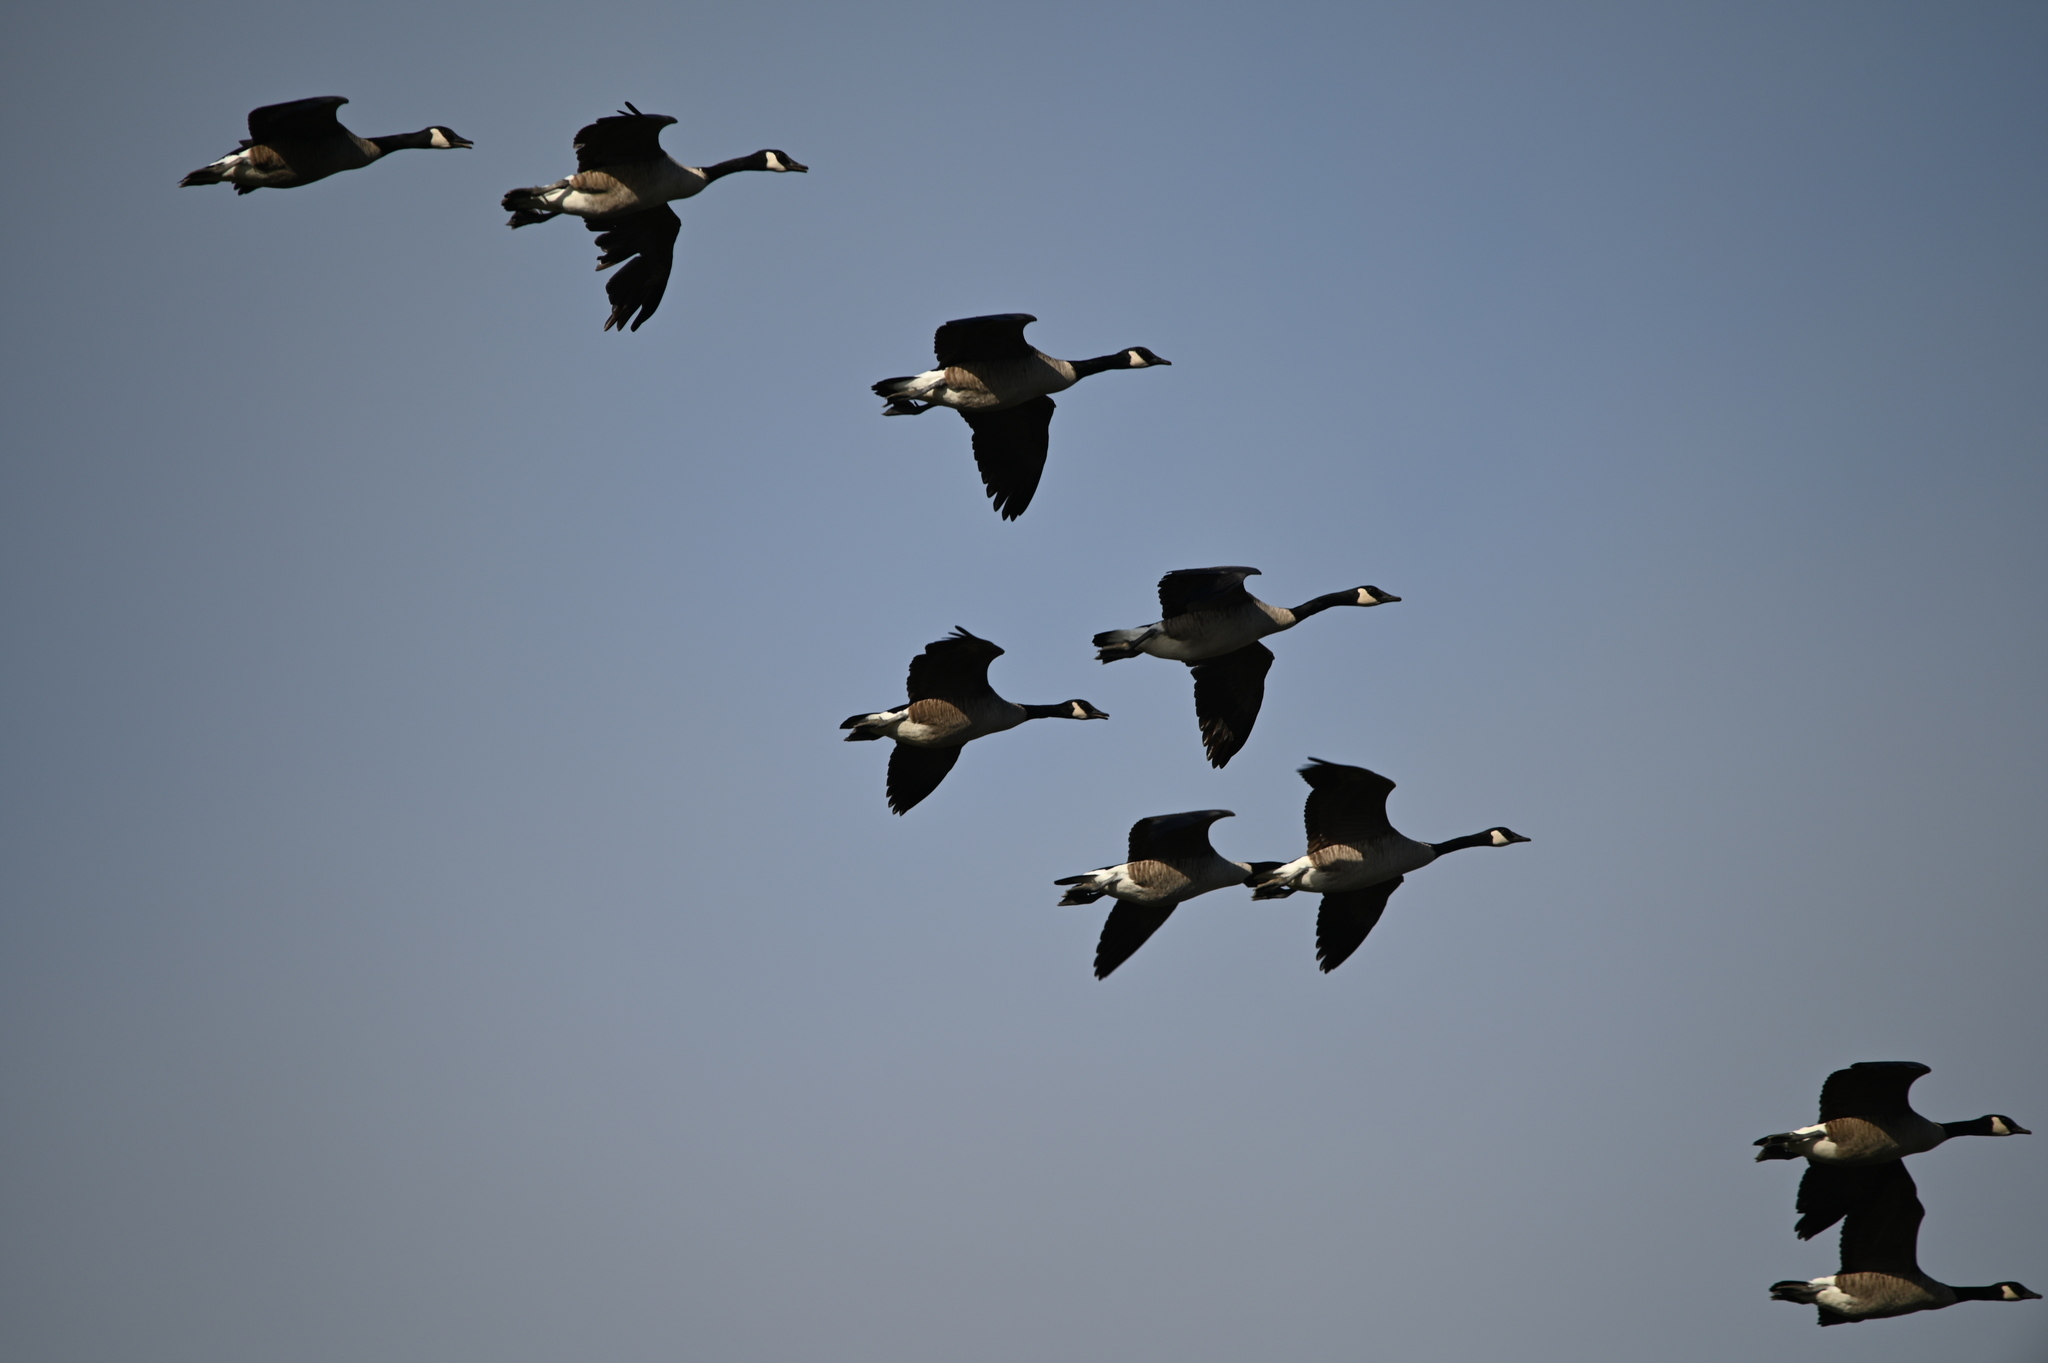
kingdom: Animalia
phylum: Chordata
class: Aves
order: Anseriformes
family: Anatidae
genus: Branta
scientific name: Branta canadensis
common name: Canada goose
